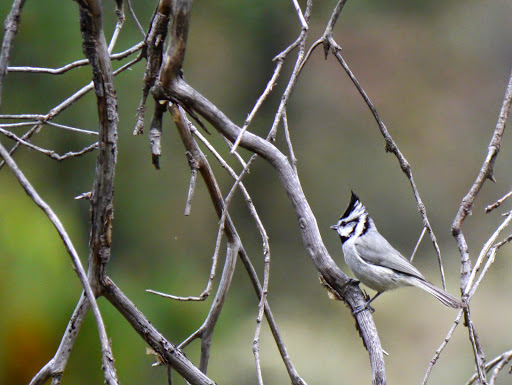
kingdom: Animalia
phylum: Chordata
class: Aves
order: Passeriformes
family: Paridae
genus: Baeolophus
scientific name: Baeolophus wollweberi
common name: Bridled titmouse
